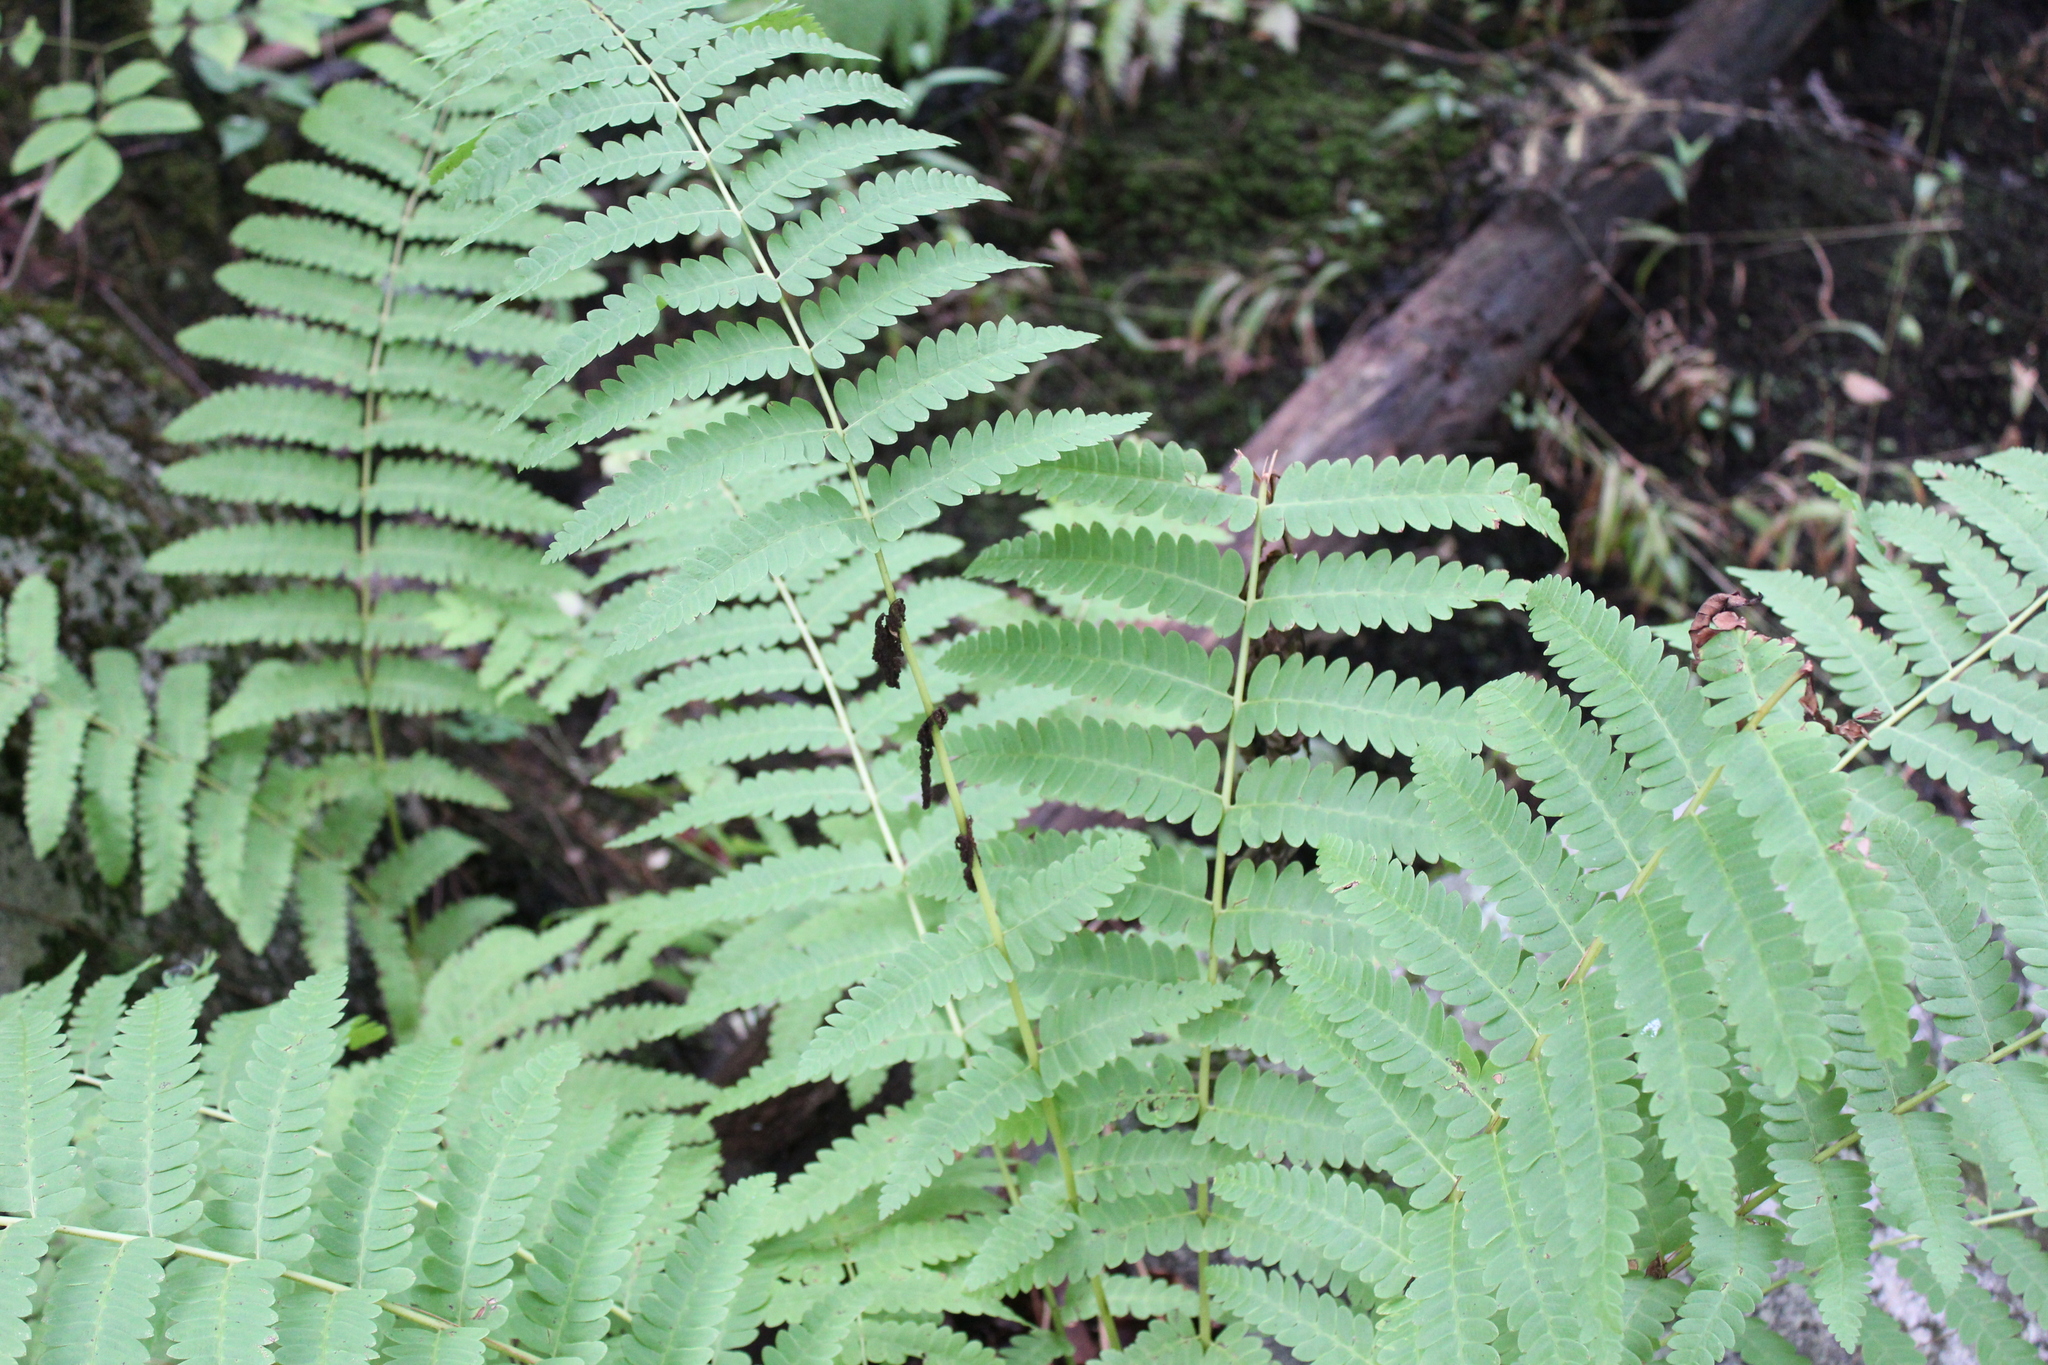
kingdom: Plantae
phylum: Tracheophyta
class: Polypodiopsida
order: Osmundales
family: Osmundaceae
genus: Claytosmunda
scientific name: Claytosmunda claytoniana
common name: Clayton's fern
